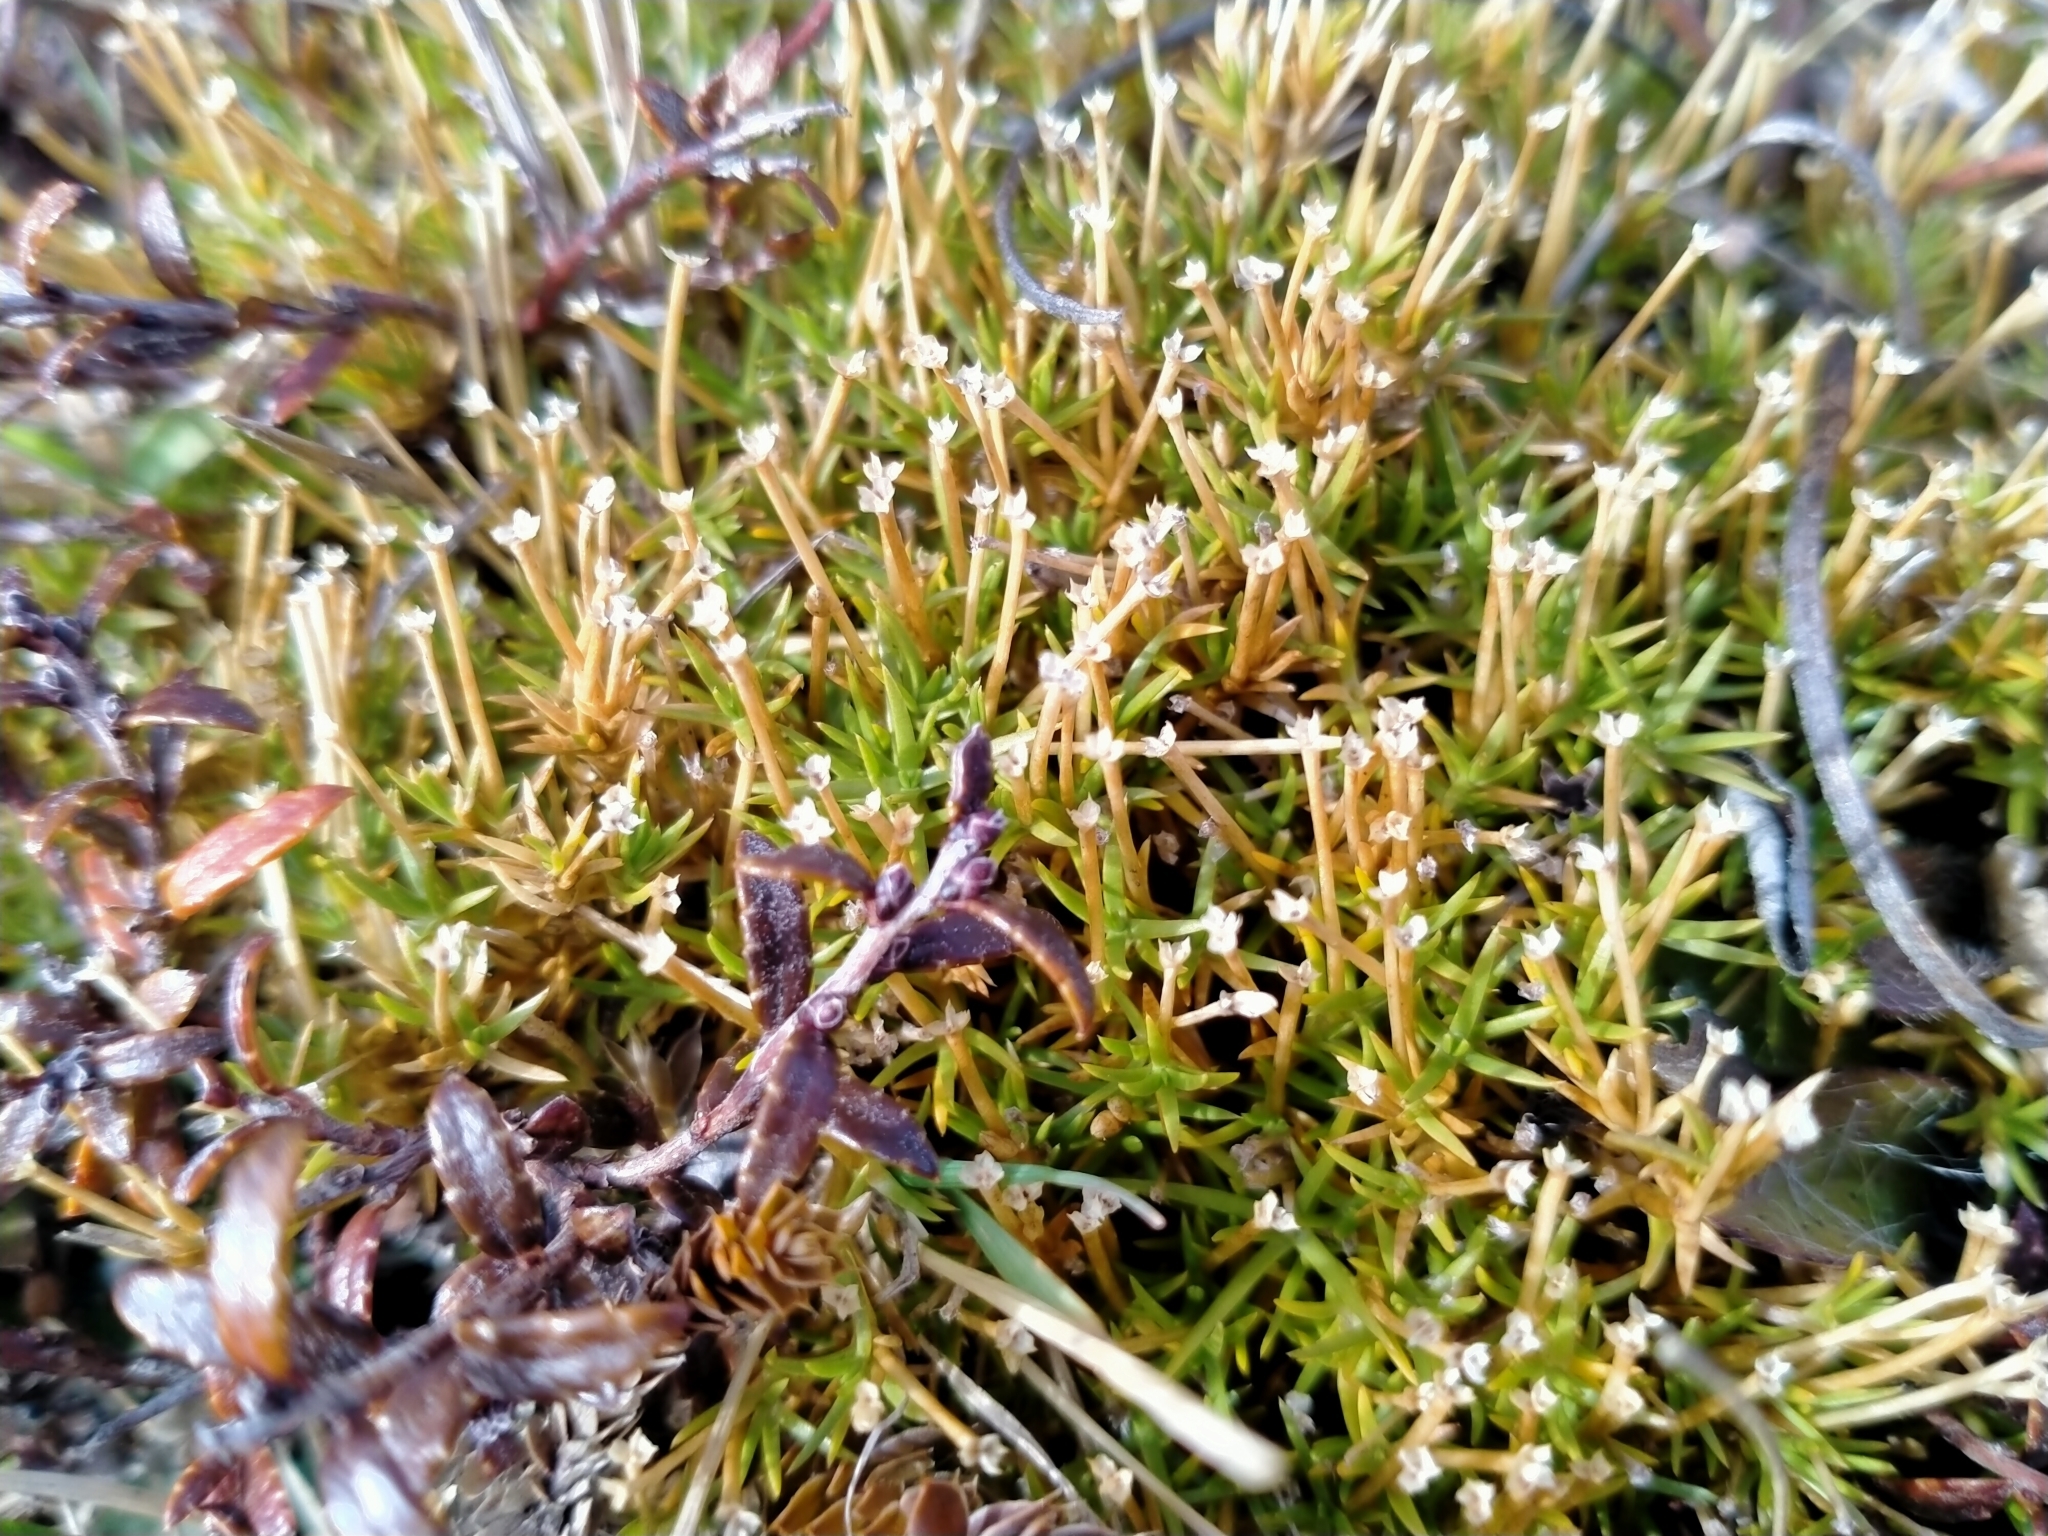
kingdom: Plantae
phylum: Tracheophyta
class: Magnoliopsida
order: Caryophyllales
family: Caryophyllaceae
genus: Scleranthus
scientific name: Scleranthus brockiei
